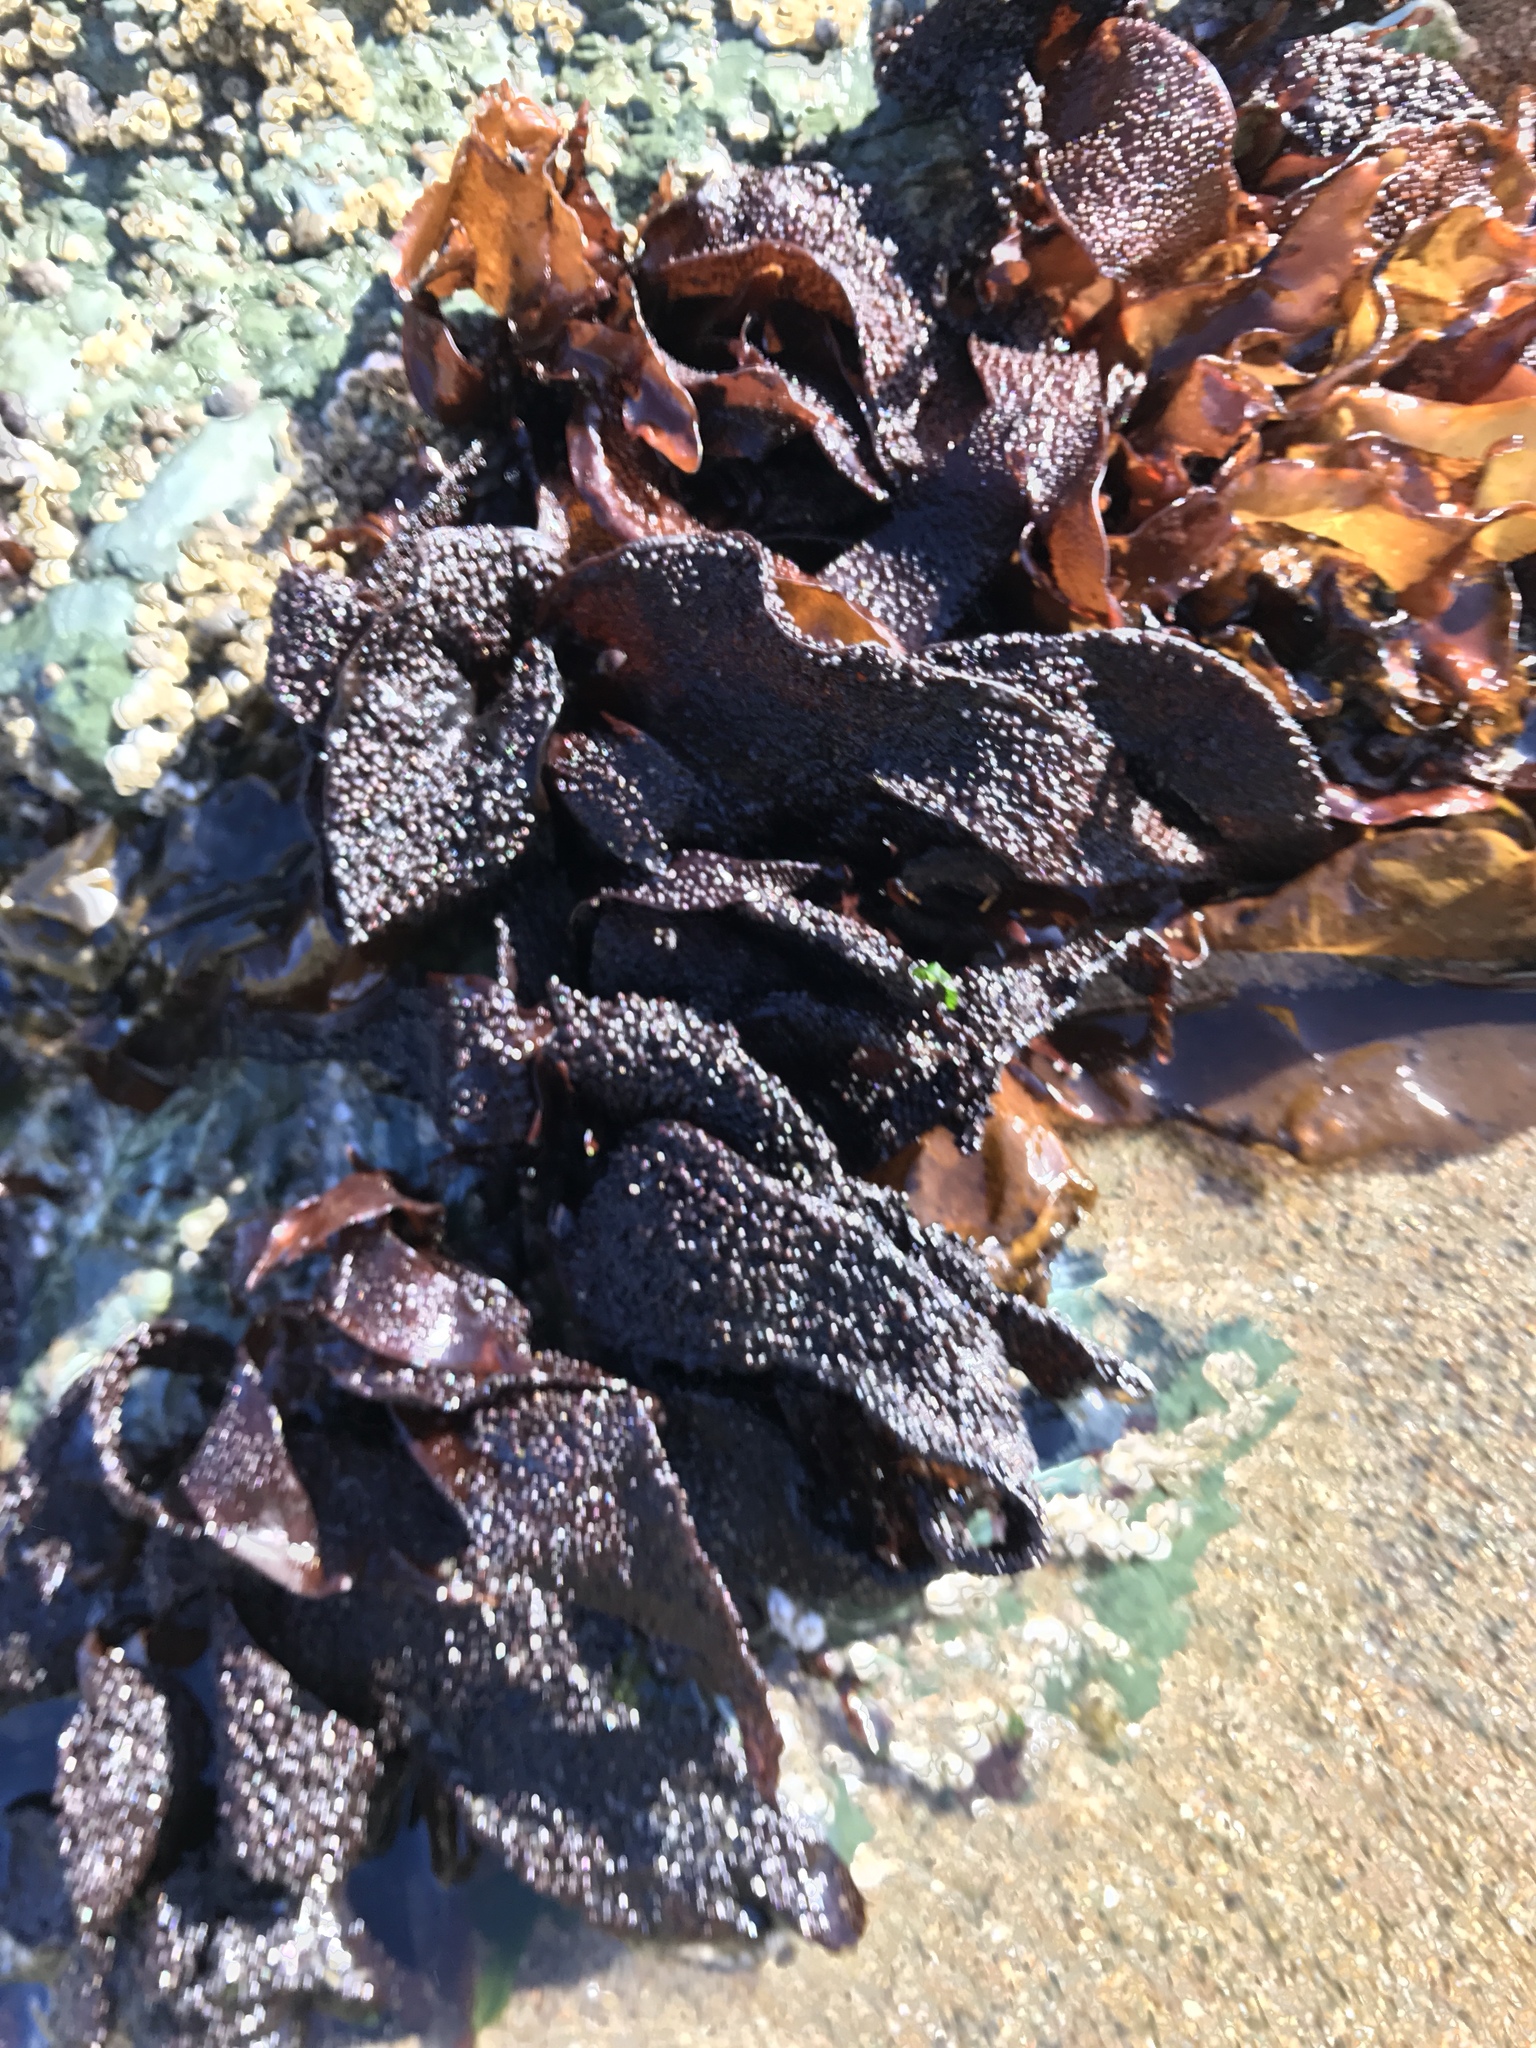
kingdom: Plantae
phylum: Rhodophyta
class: Florideophyceae
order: Gigartinales
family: Phyllophoraceae
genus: Mastocarpus
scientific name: Mastocarpus papillatus
